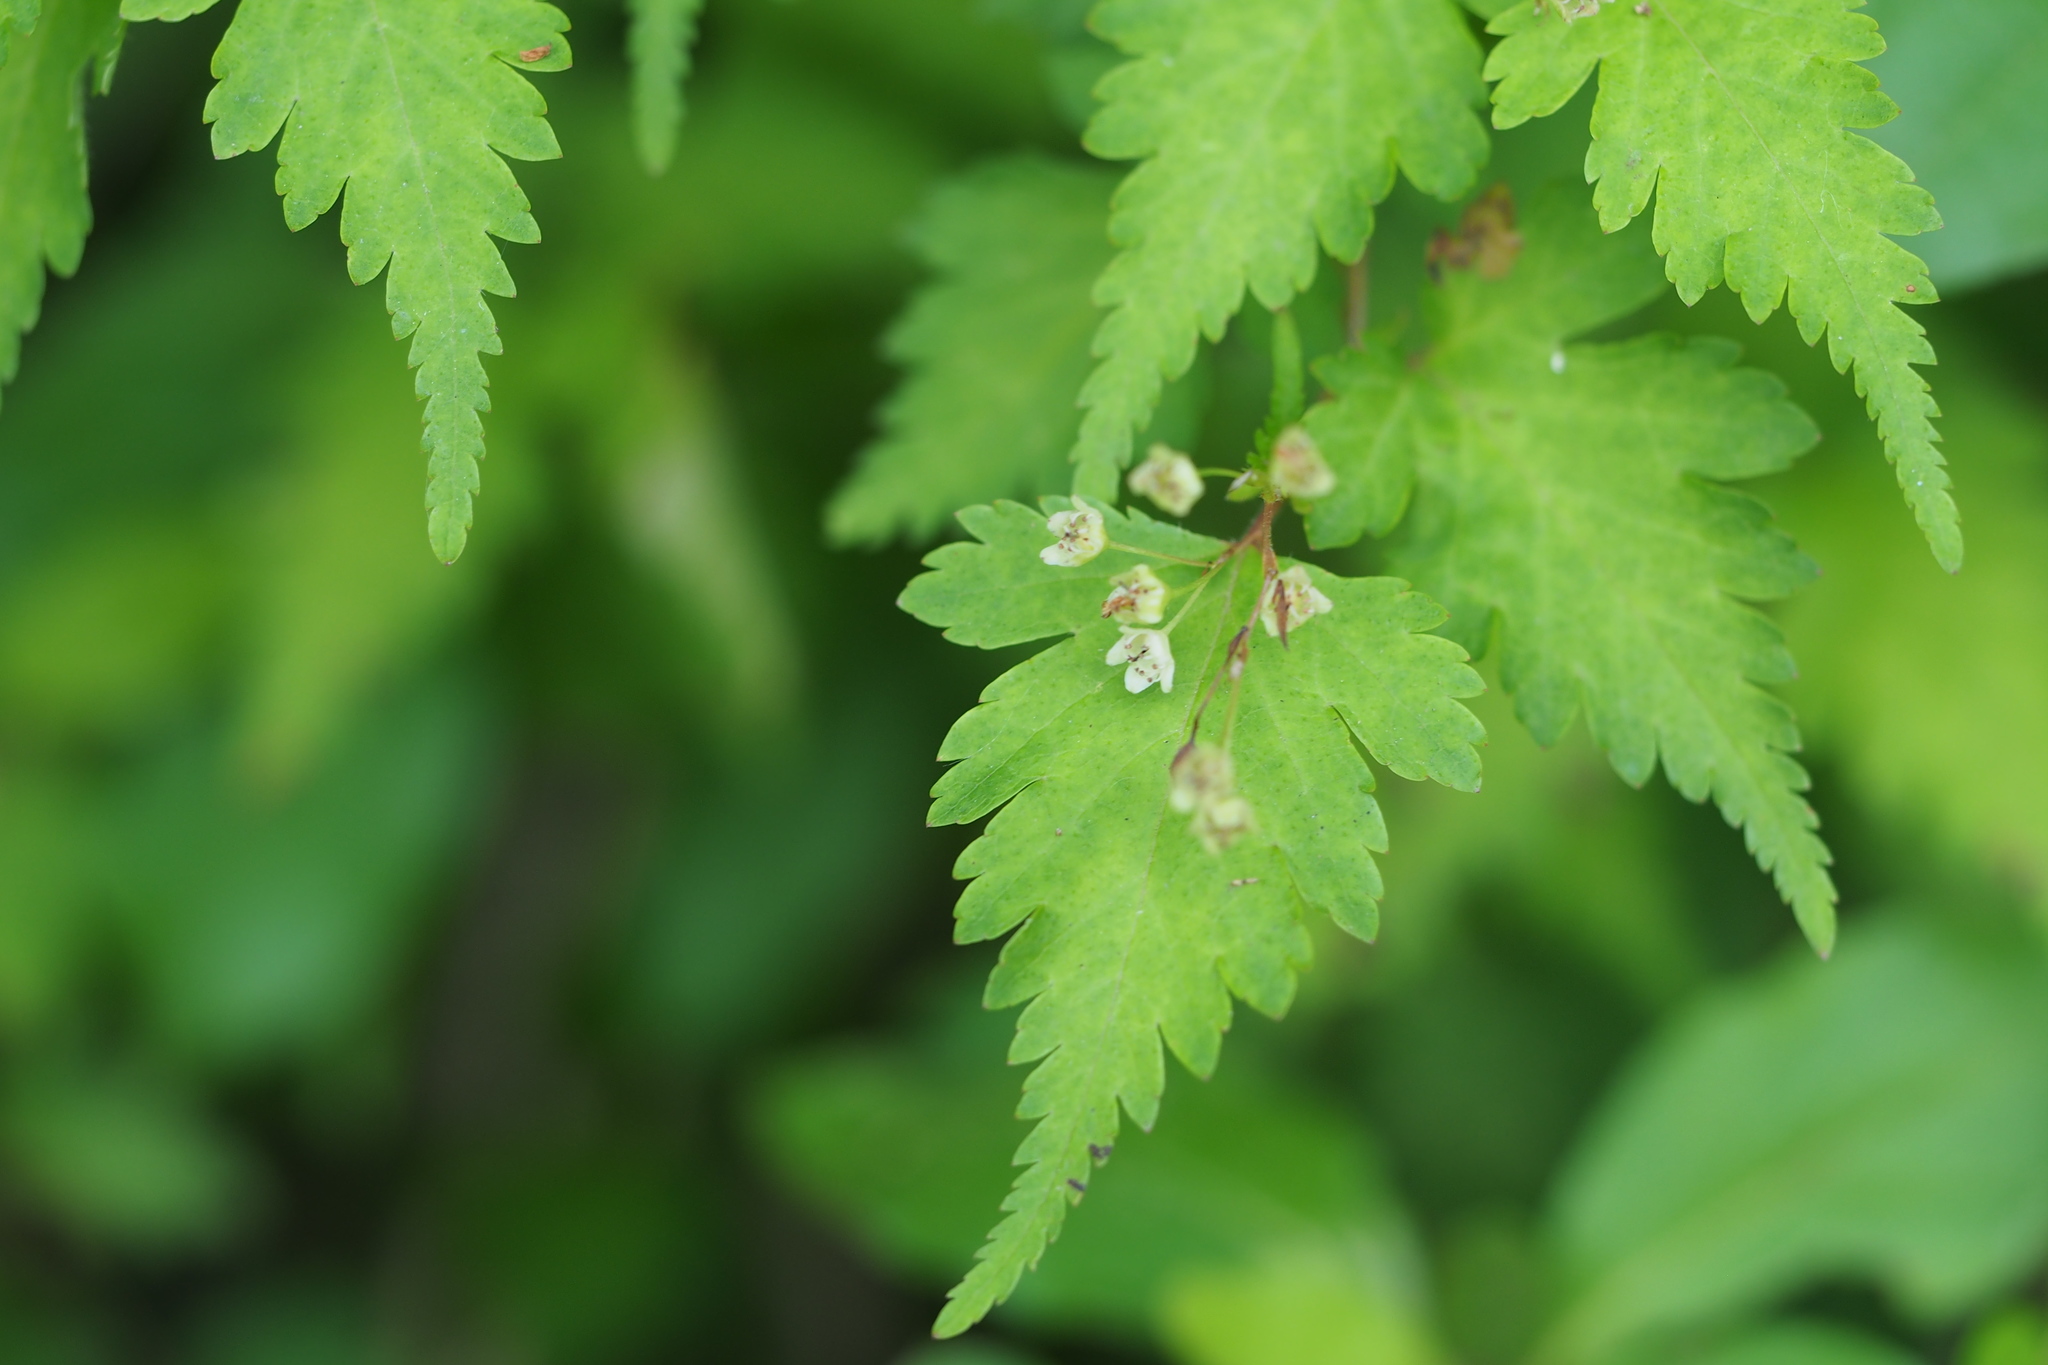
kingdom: Plantae
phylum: Tracheophyta
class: Magnoliopsida
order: Rosales
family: Rosaceae
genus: Neillia
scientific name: Neillia incisa
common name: Laceshrub
